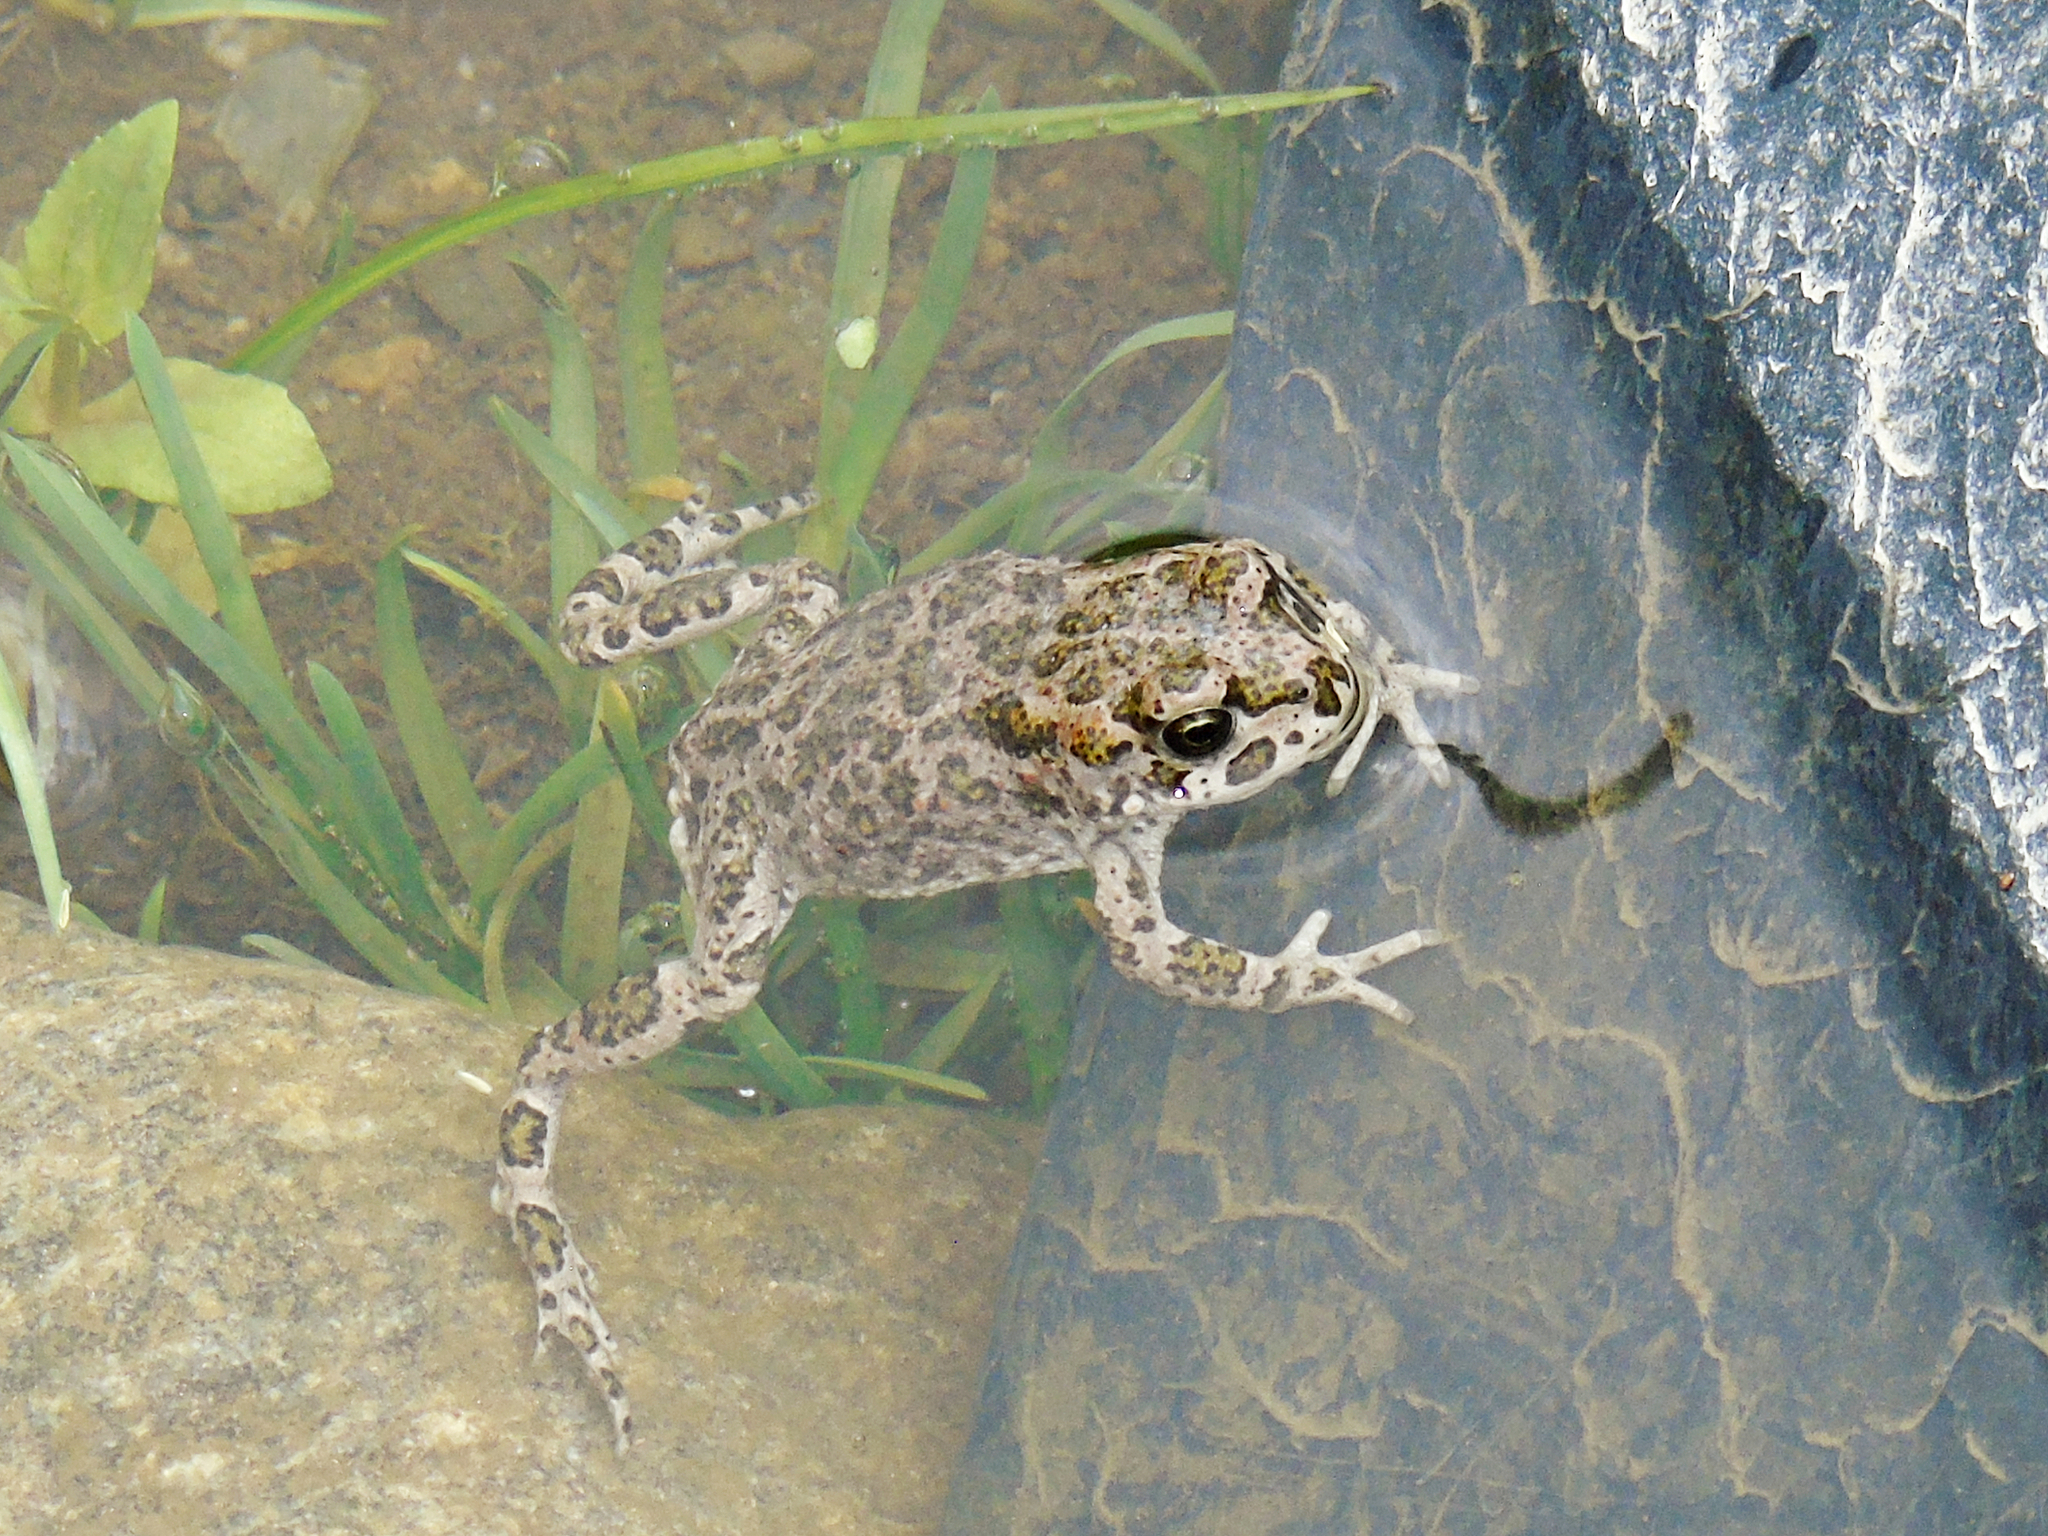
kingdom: Animalia
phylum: Chordata
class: Amphibia
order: Anura
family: Bufonidae
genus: Bufotes
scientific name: Bufotes viridis
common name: European green toad
